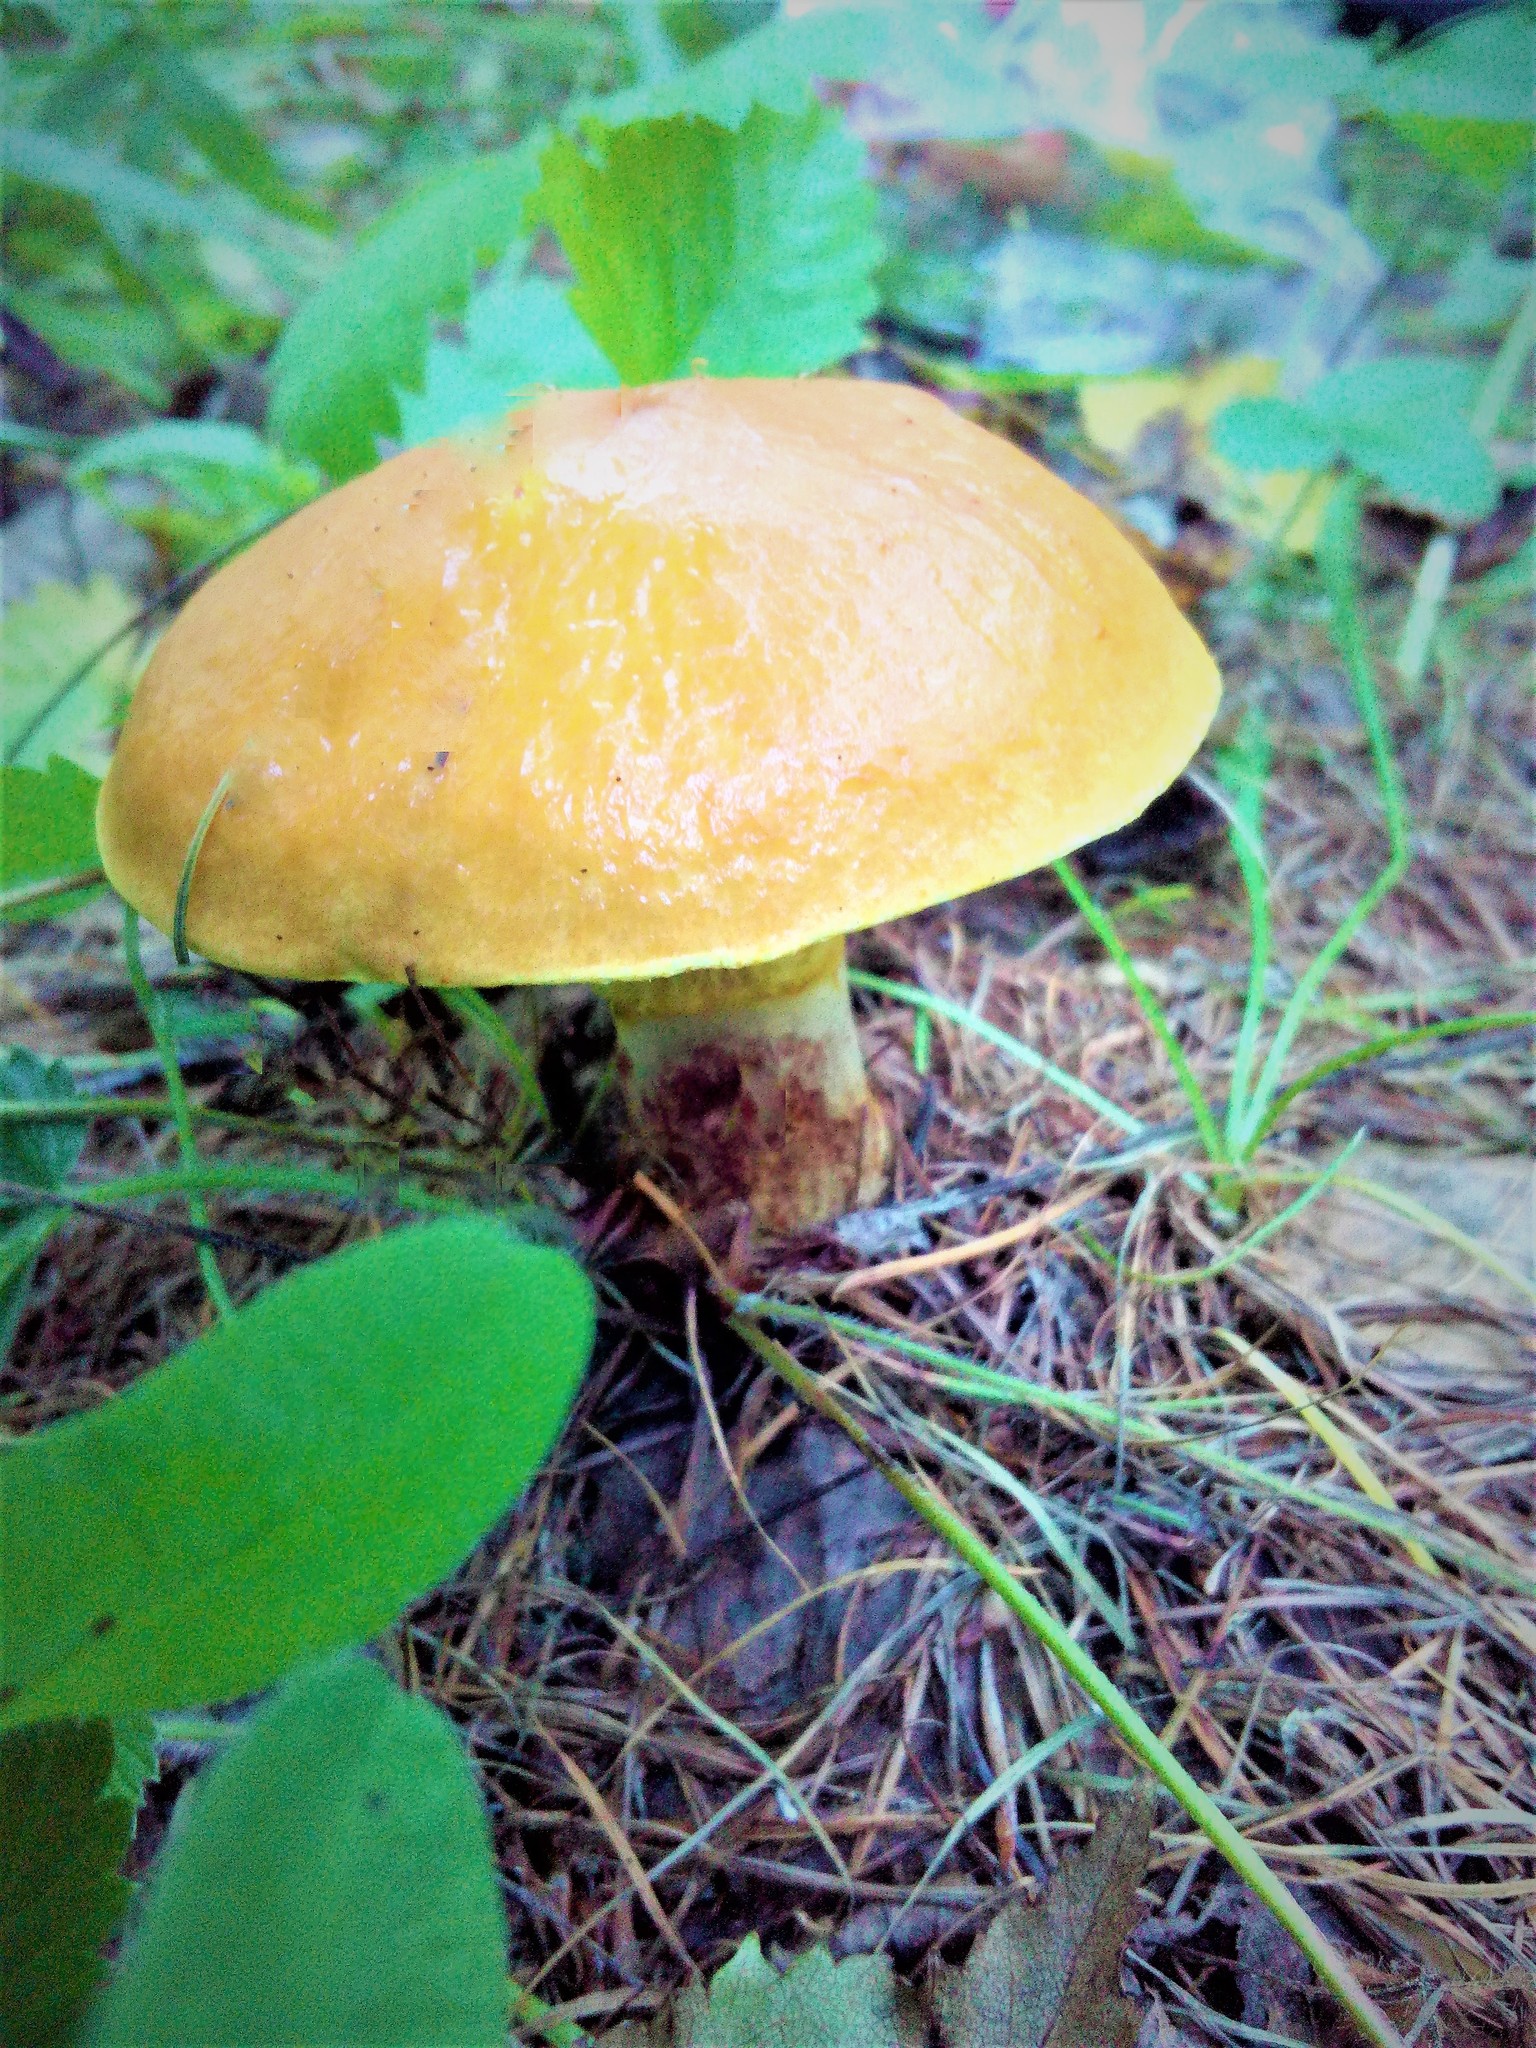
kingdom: Fungi
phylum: Basidiomycota
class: Agaricomycetes
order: Boletales
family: Suillaceae
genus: Suillus
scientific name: Suillus grevillei
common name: Larch bolete
